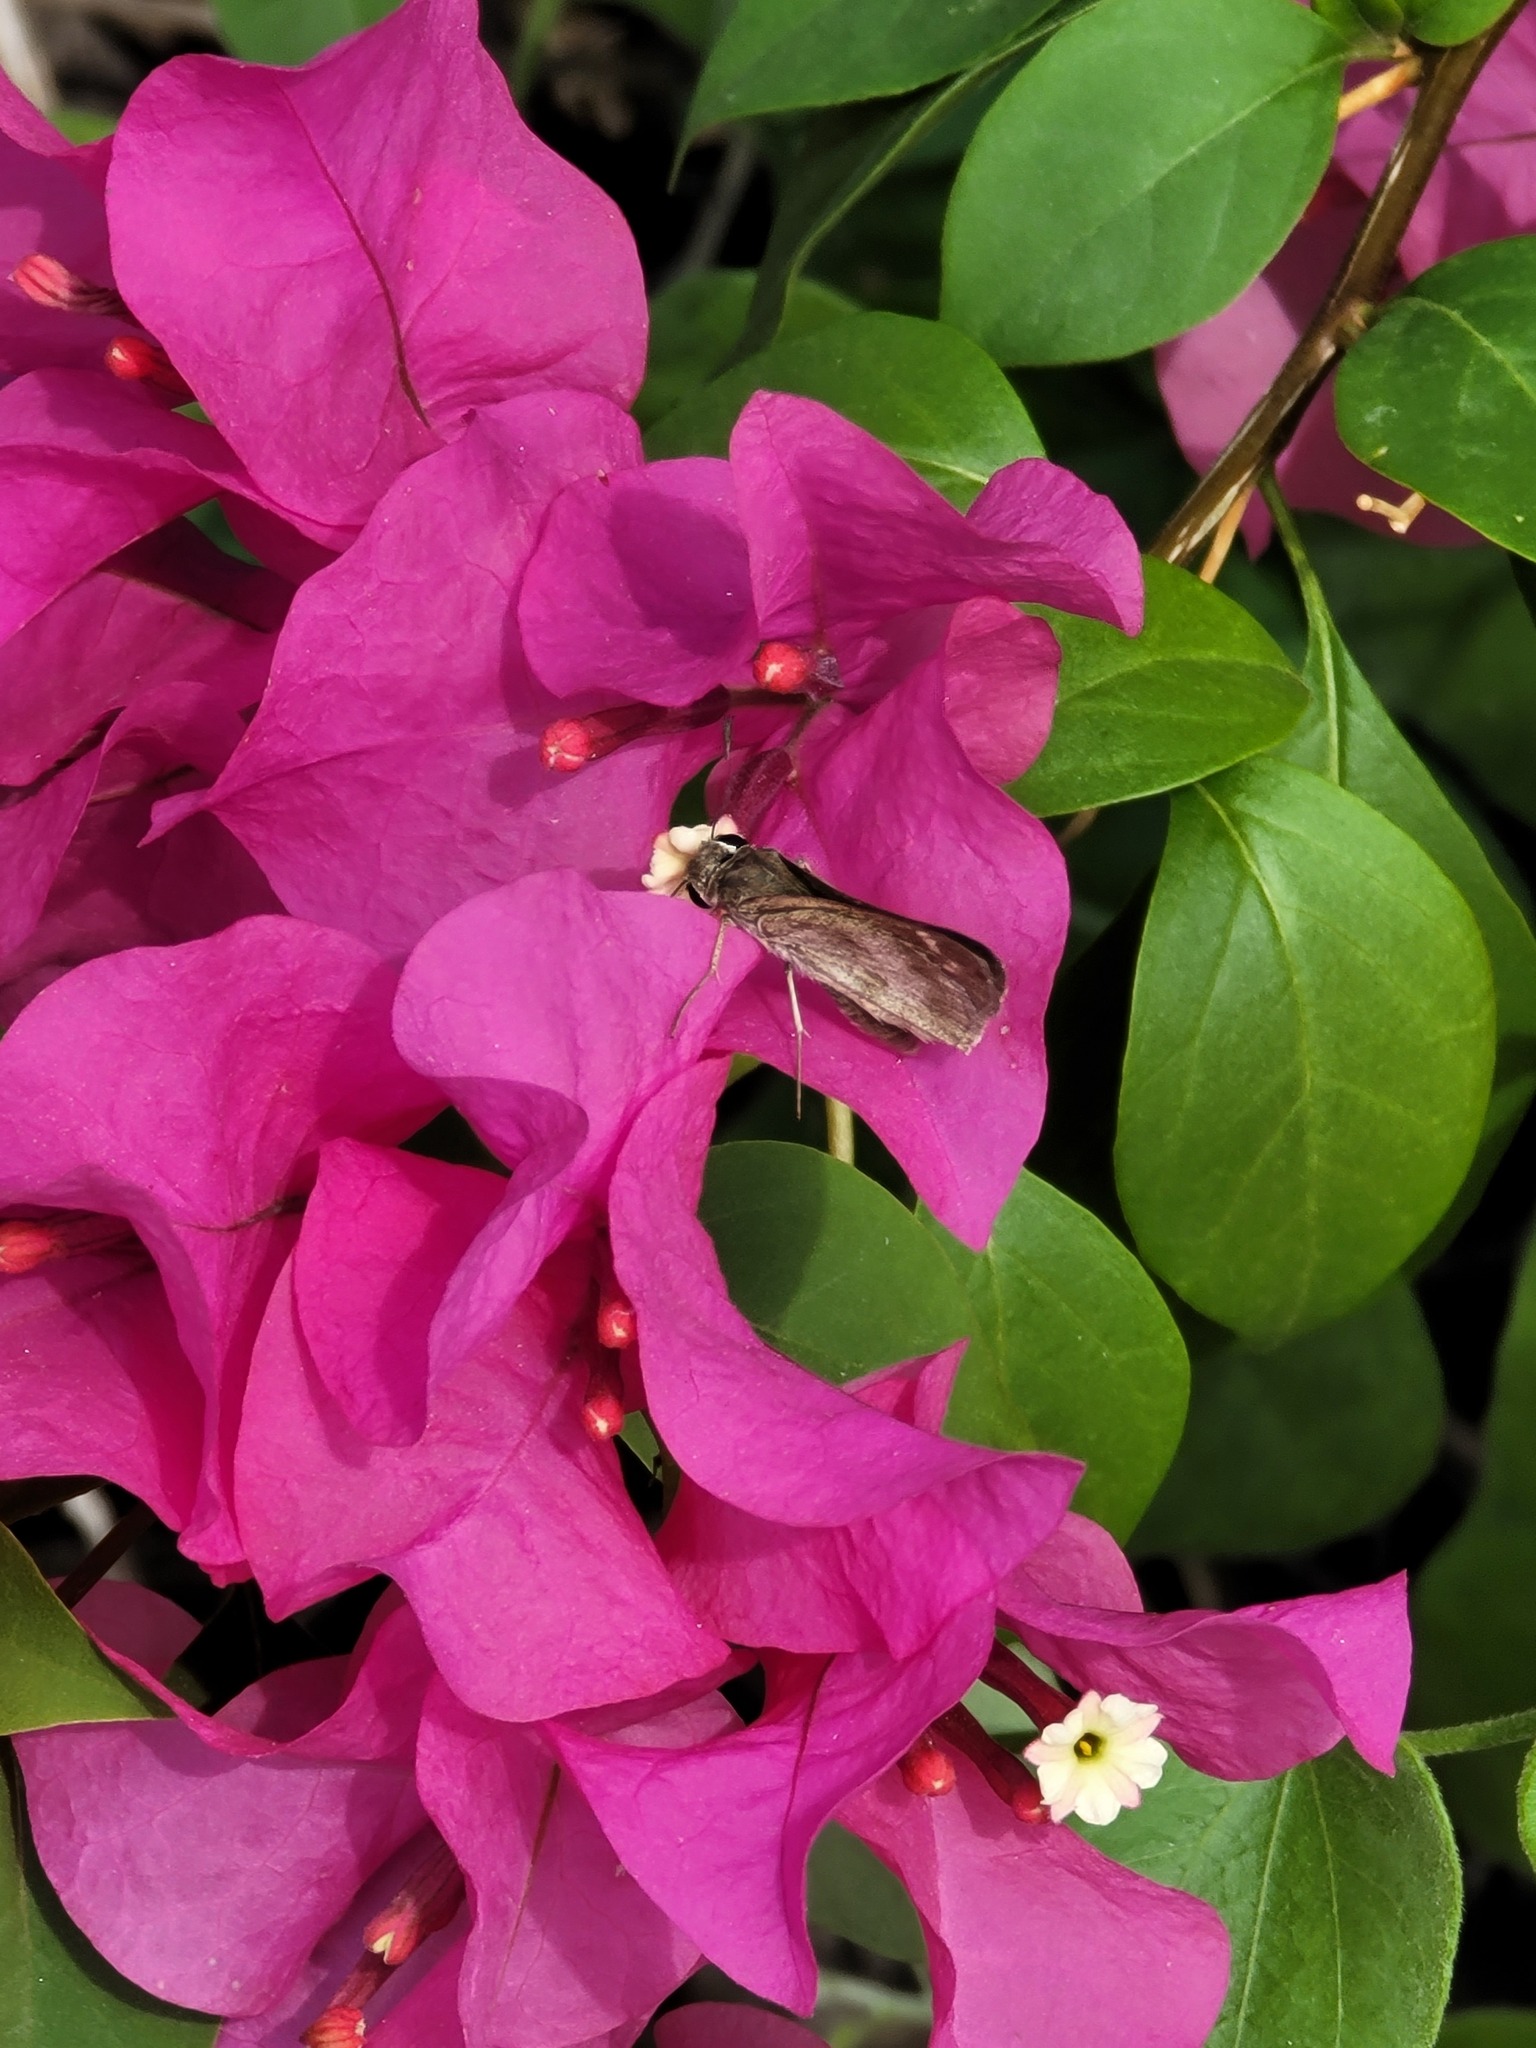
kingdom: Animalia
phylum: Arthropoda
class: Insecta
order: Lepidoptera
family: Hesperiidae
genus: Polites
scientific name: Polites vibex
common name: Whirlabout
